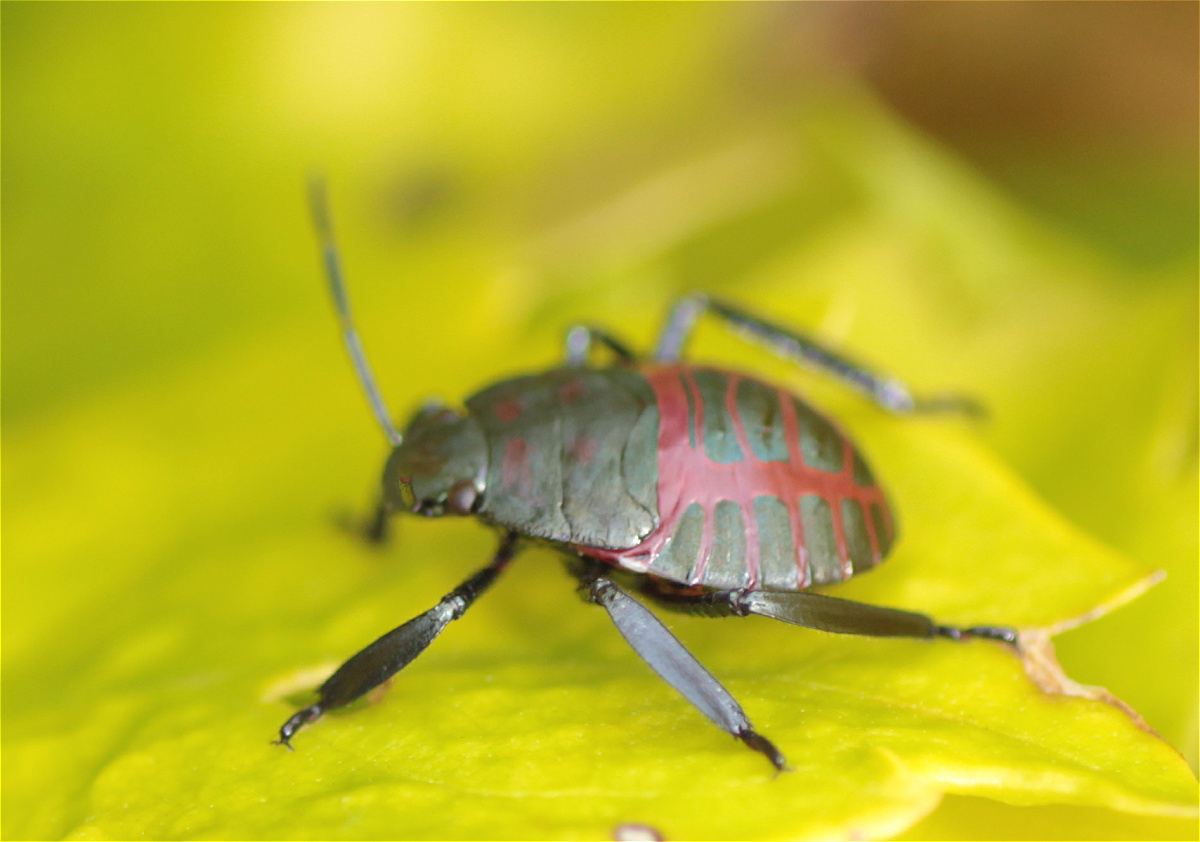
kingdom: Animalia
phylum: Arthropoda
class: Insecta
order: Hemiptera
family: Pentatomidae
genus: Pellaea
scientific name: Pellaea stictica
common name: Stink bug
